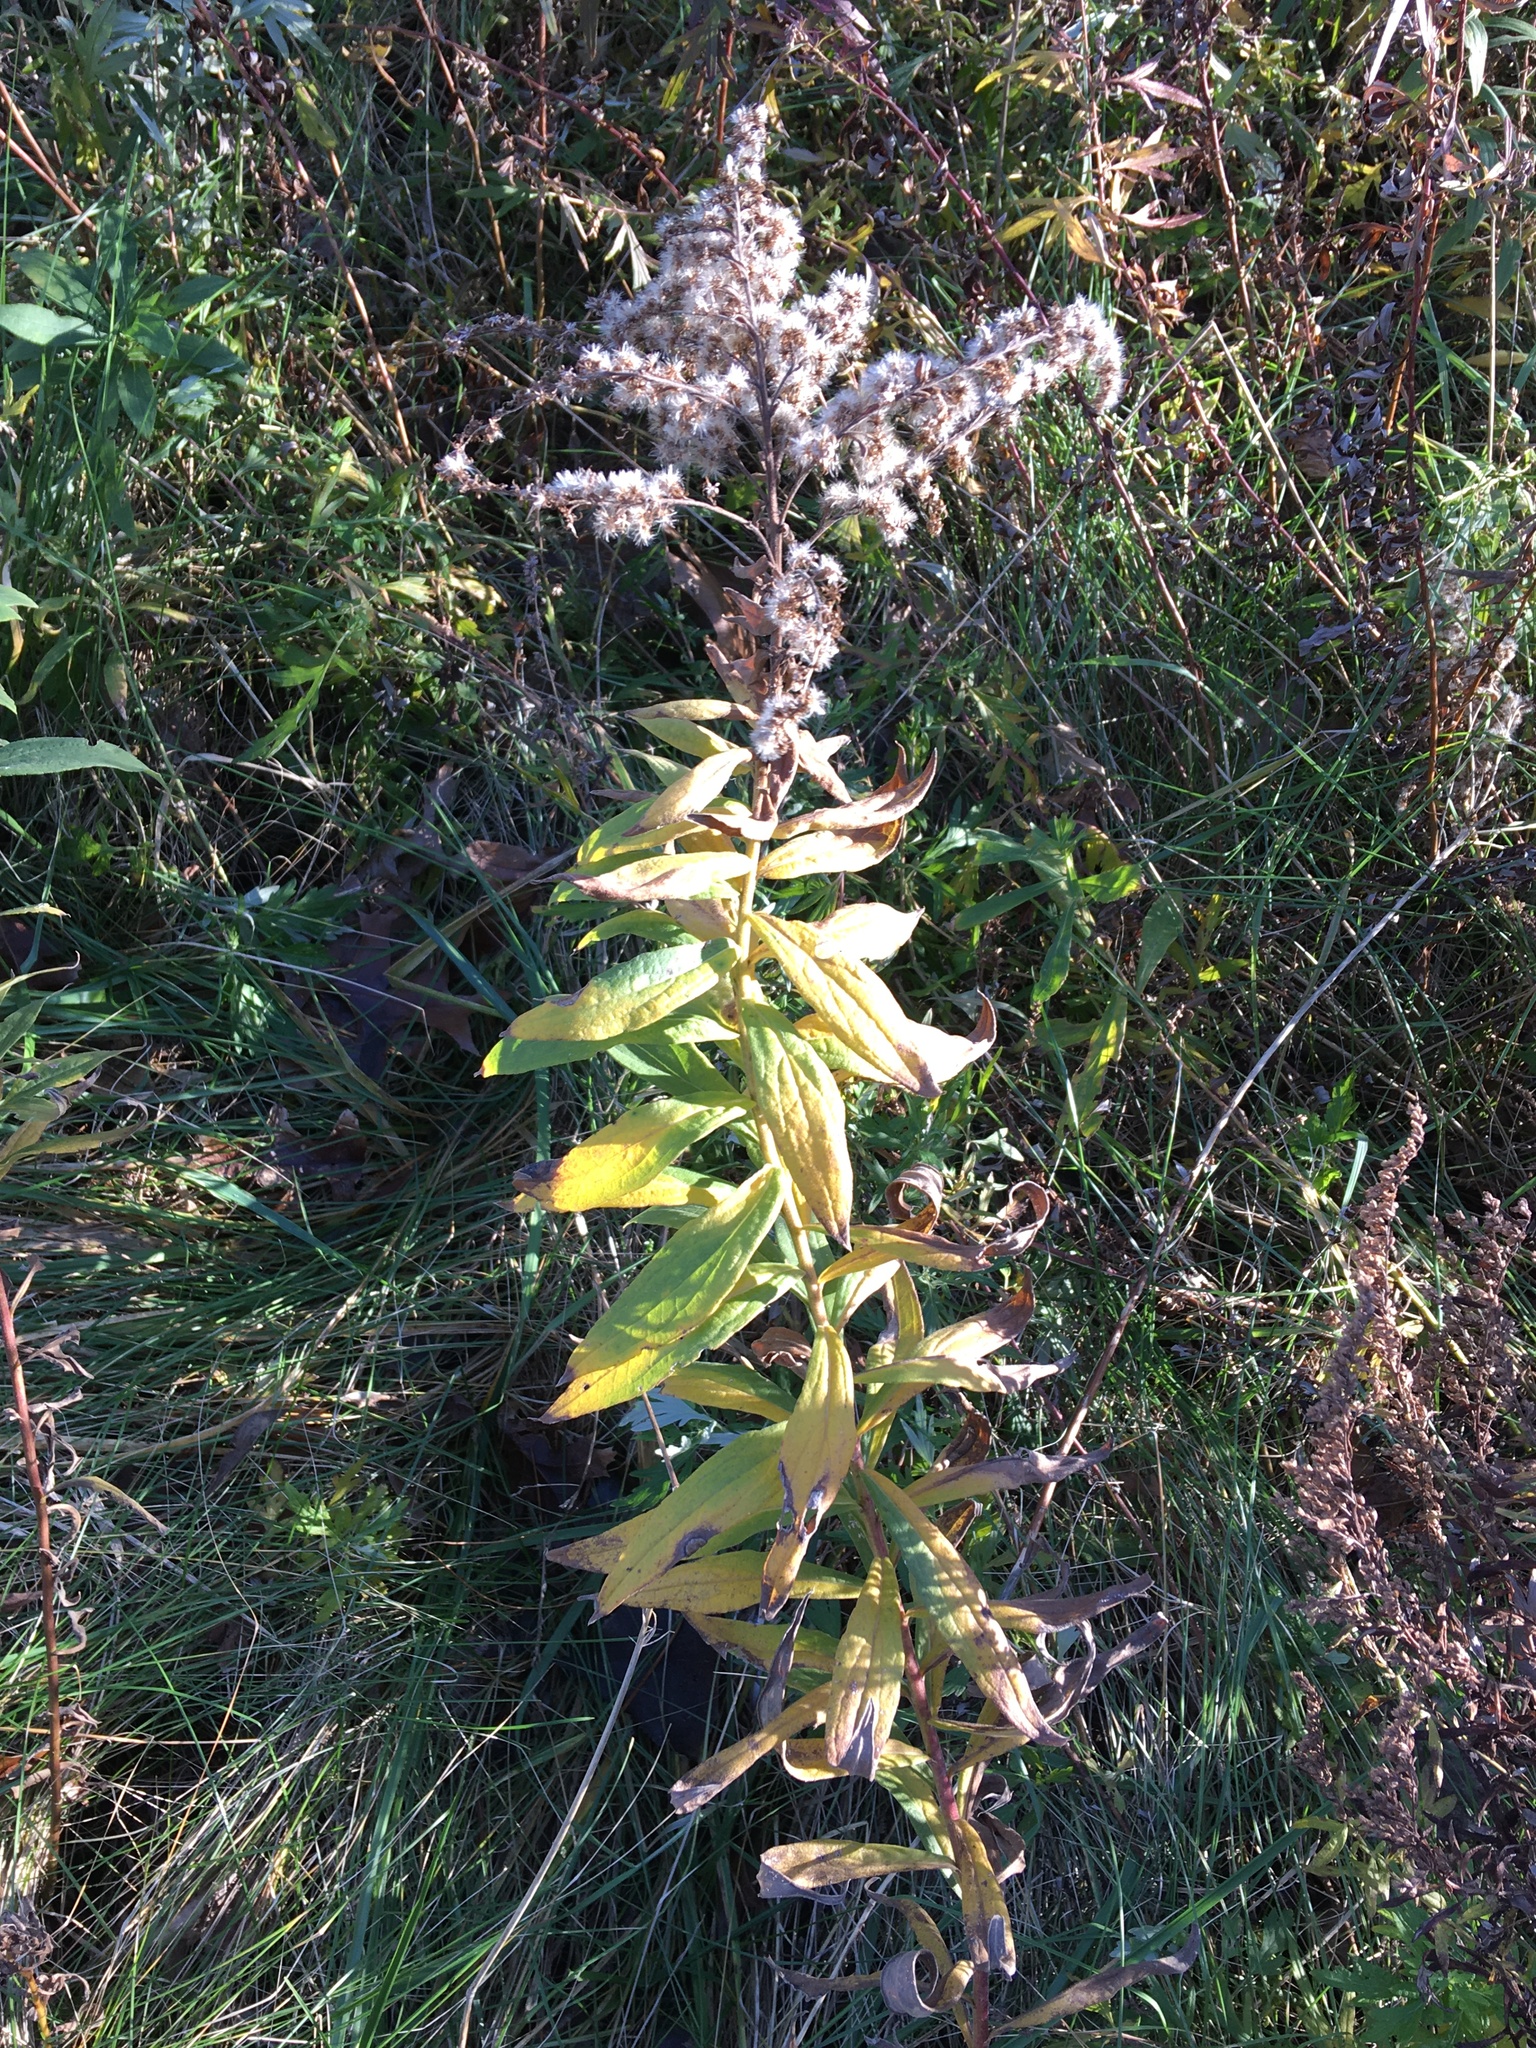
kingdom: Plantae
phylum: Tracheophyta
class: Magnoliopsida
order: Asterales
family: Asteraceae
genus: Solidago
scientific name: Solidago rugosa
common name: Rough-stemmed goldenrod
